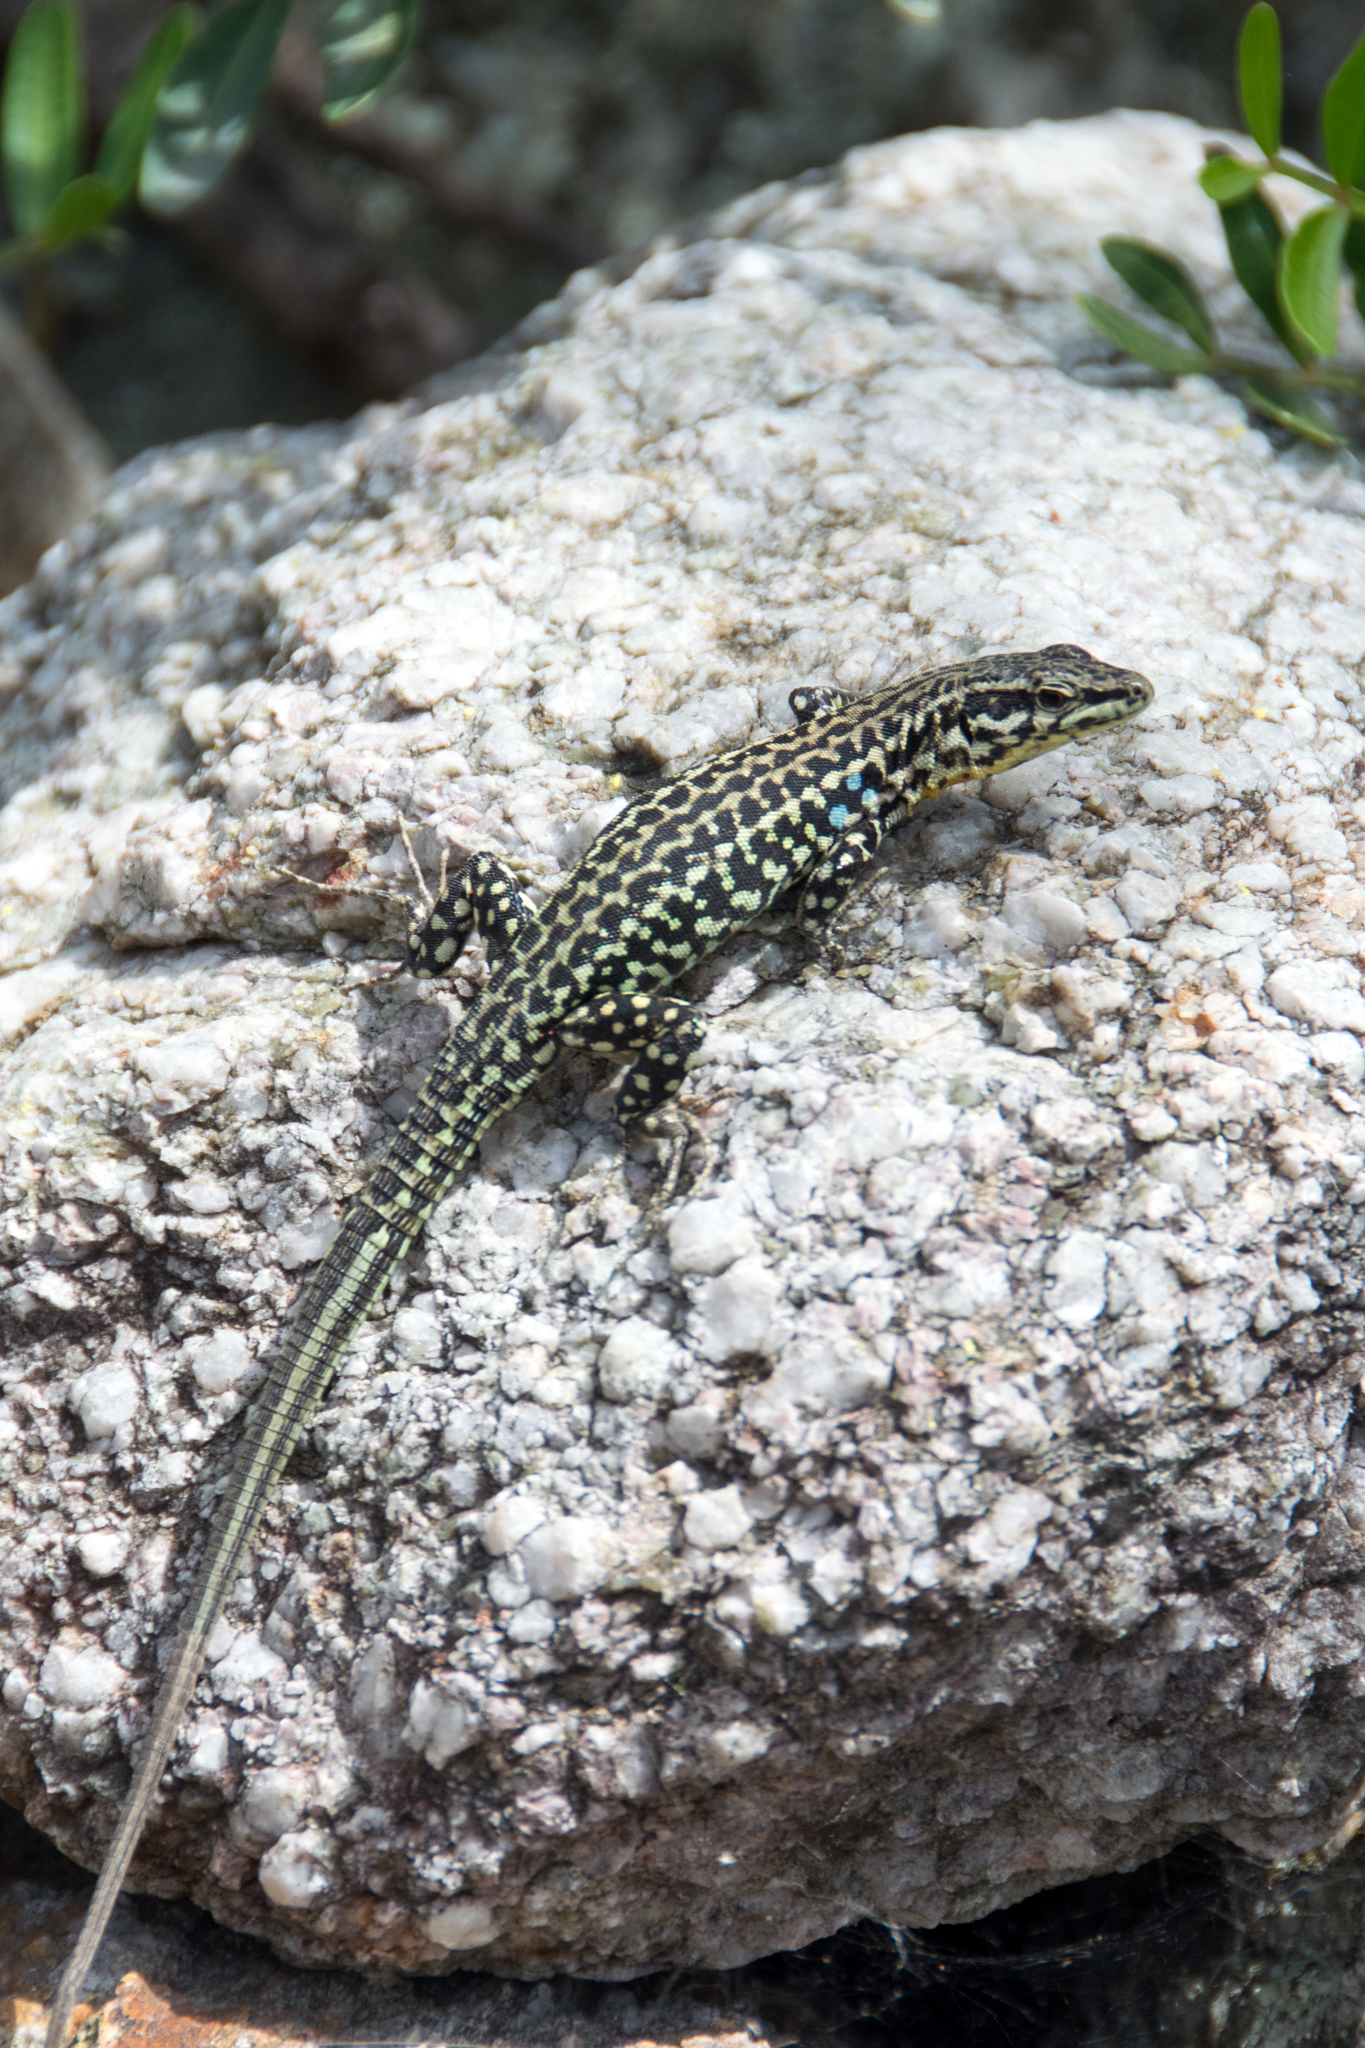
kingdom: Animalia
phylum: Chordata
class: Squamata
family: Lacertidae
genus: Podarcis
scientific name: Podarcis tiliguerta
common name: Tyrrhenian wall lizard
